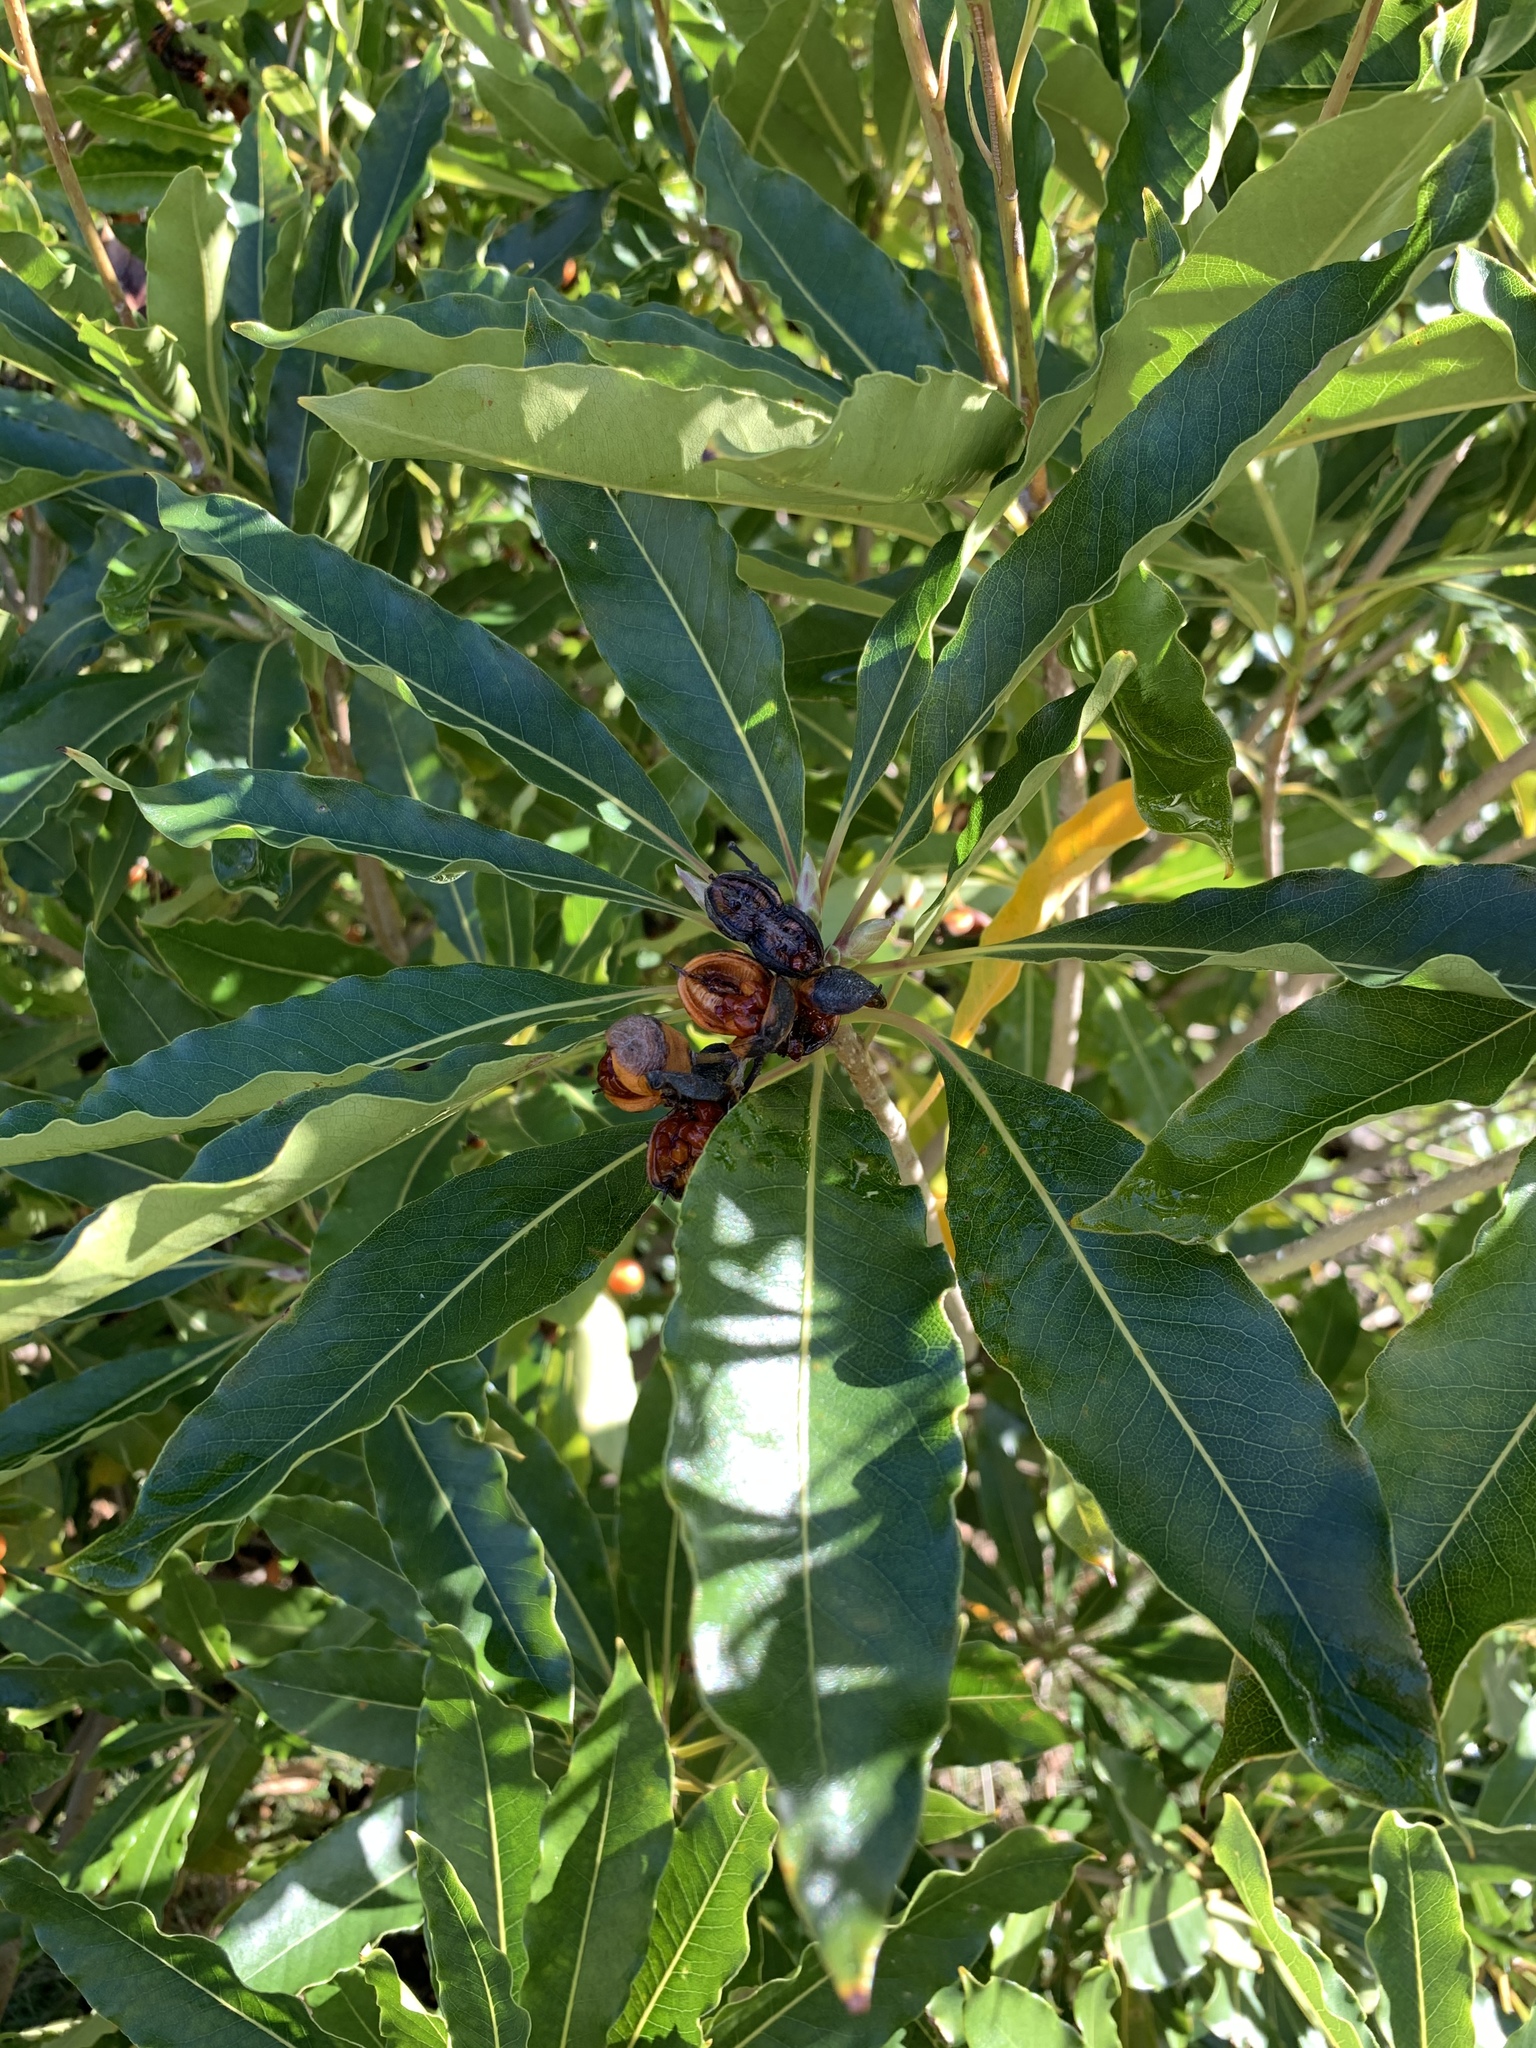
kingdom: Plantae
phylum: Tracheophyta
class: Magnoliopsida
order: Apiales
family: Pittosporaceae
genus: Pittosporum
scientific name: Pittosporum undulatum
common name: Australian cheesewood
